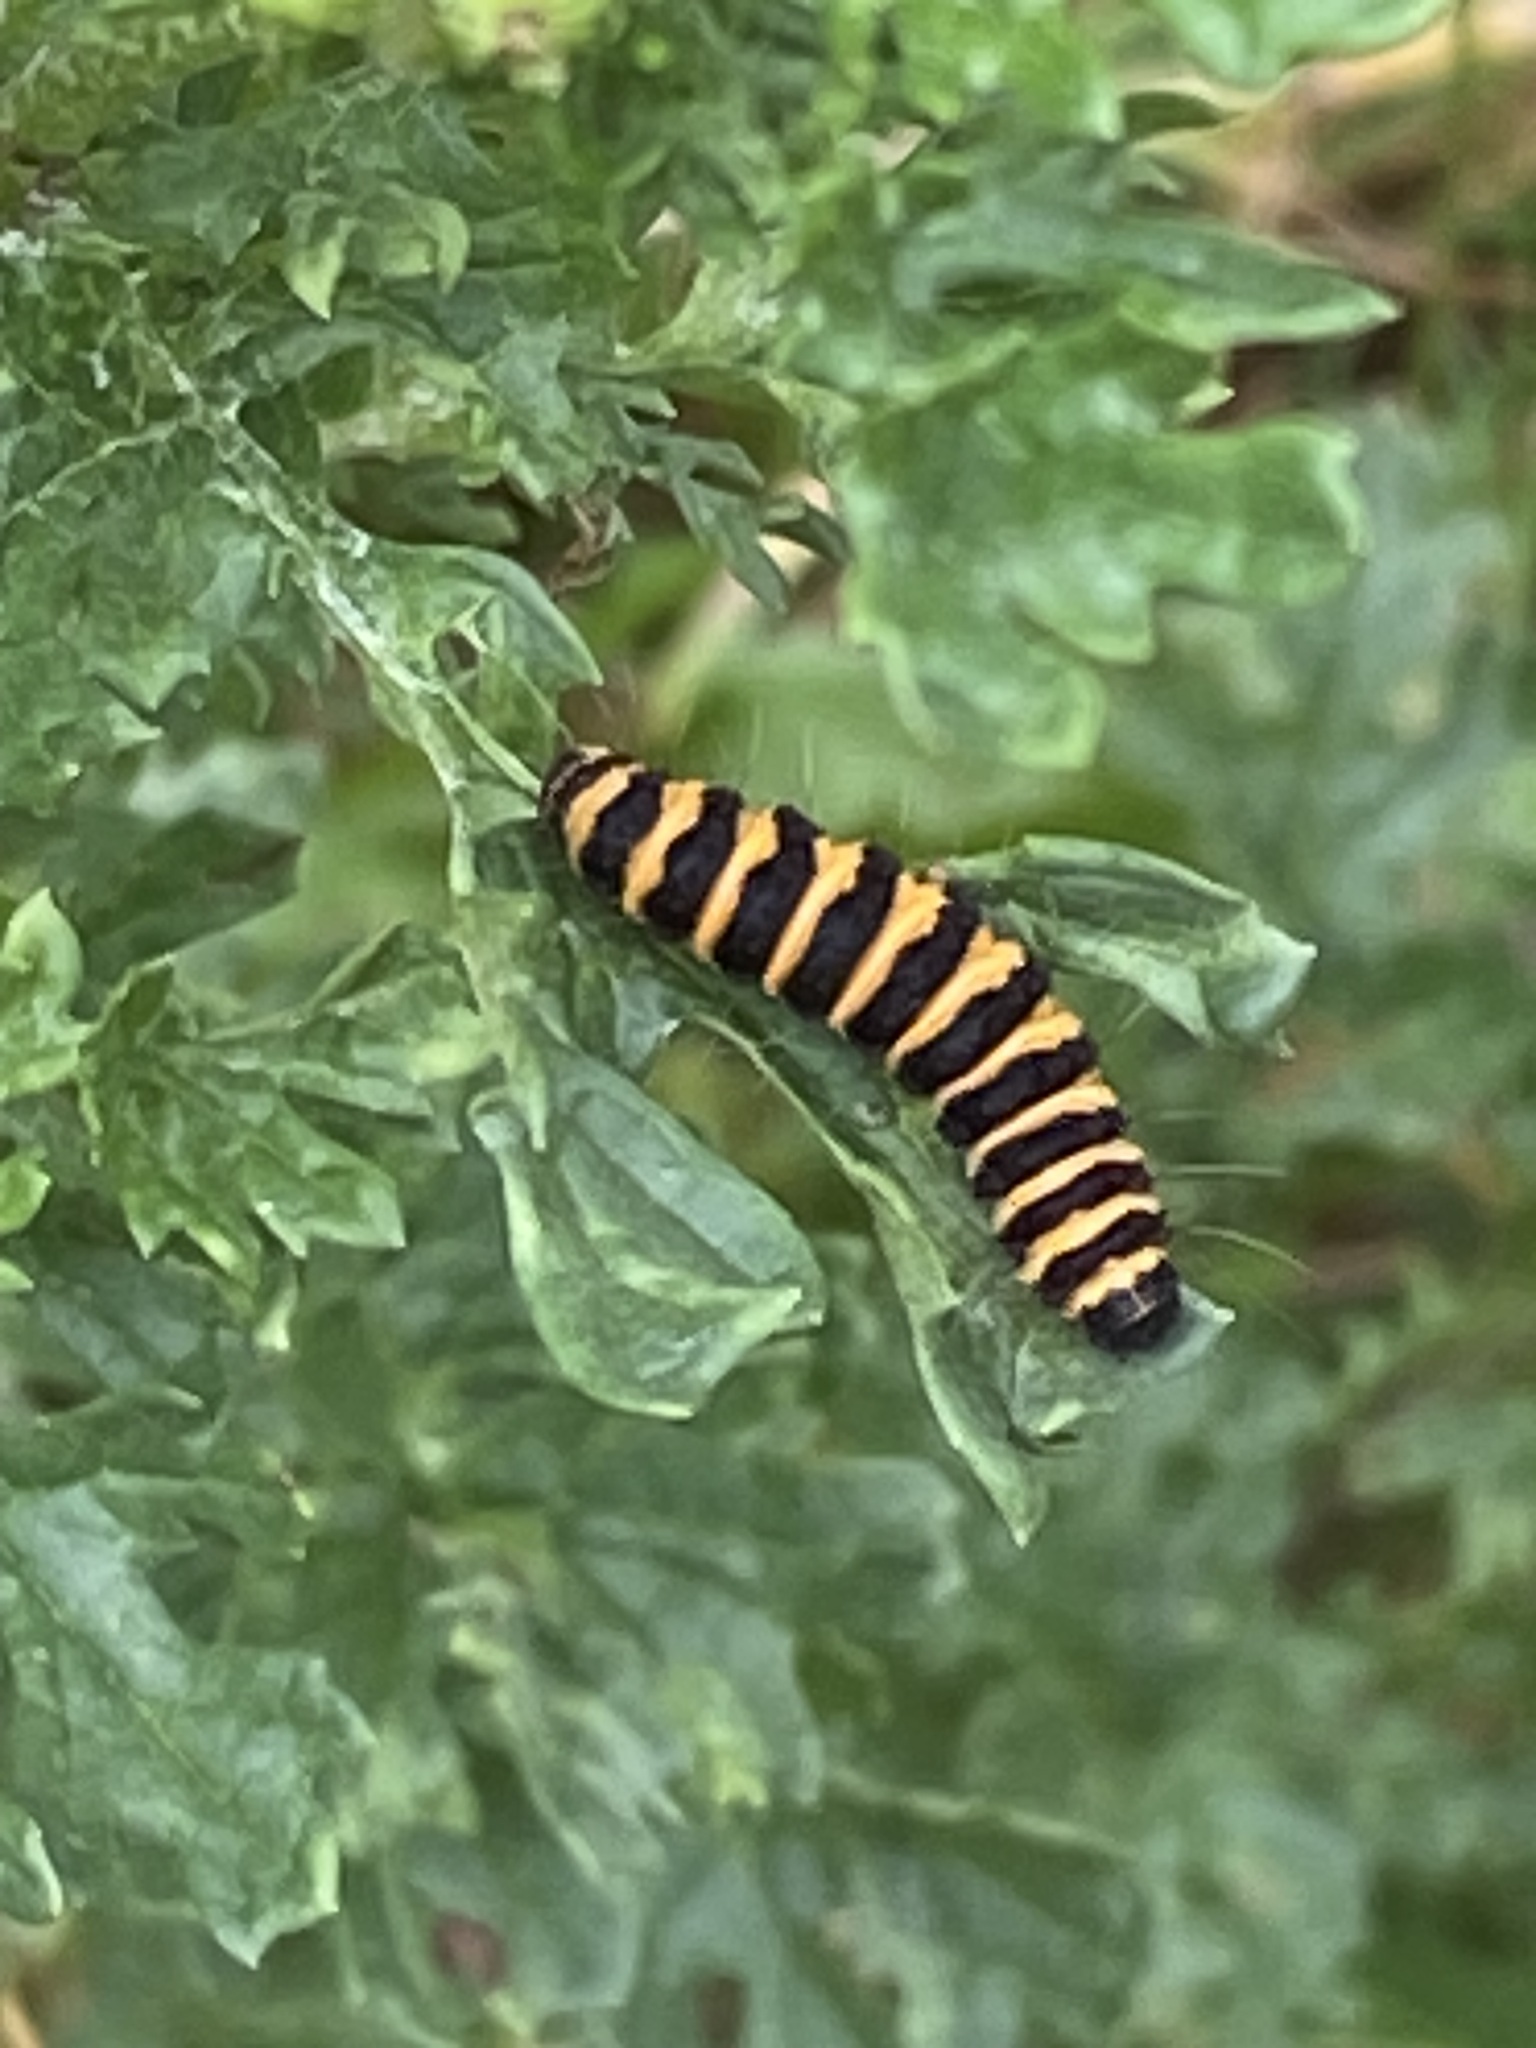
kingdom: Animalia
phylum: Arthropoda
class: Insecta
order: Lepidoptera
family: Erebidae
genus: Tyria
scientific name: Tyria jacobaeae
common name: Cinnabar
